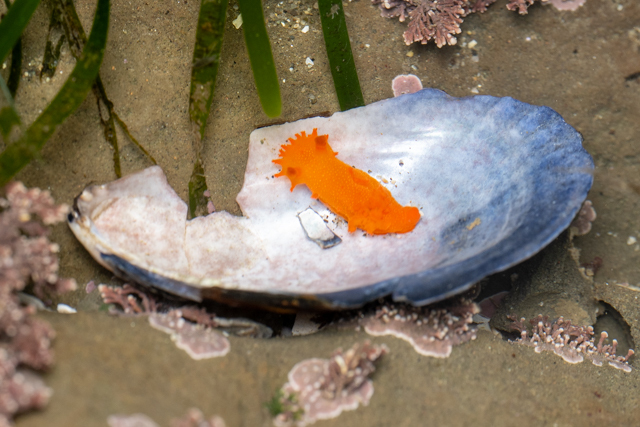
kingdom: Animalia
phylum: Mollusca
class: Gastropoda
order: Nudibranchia
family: Polyceridae
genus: Triopha
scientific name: Triopha maculata
